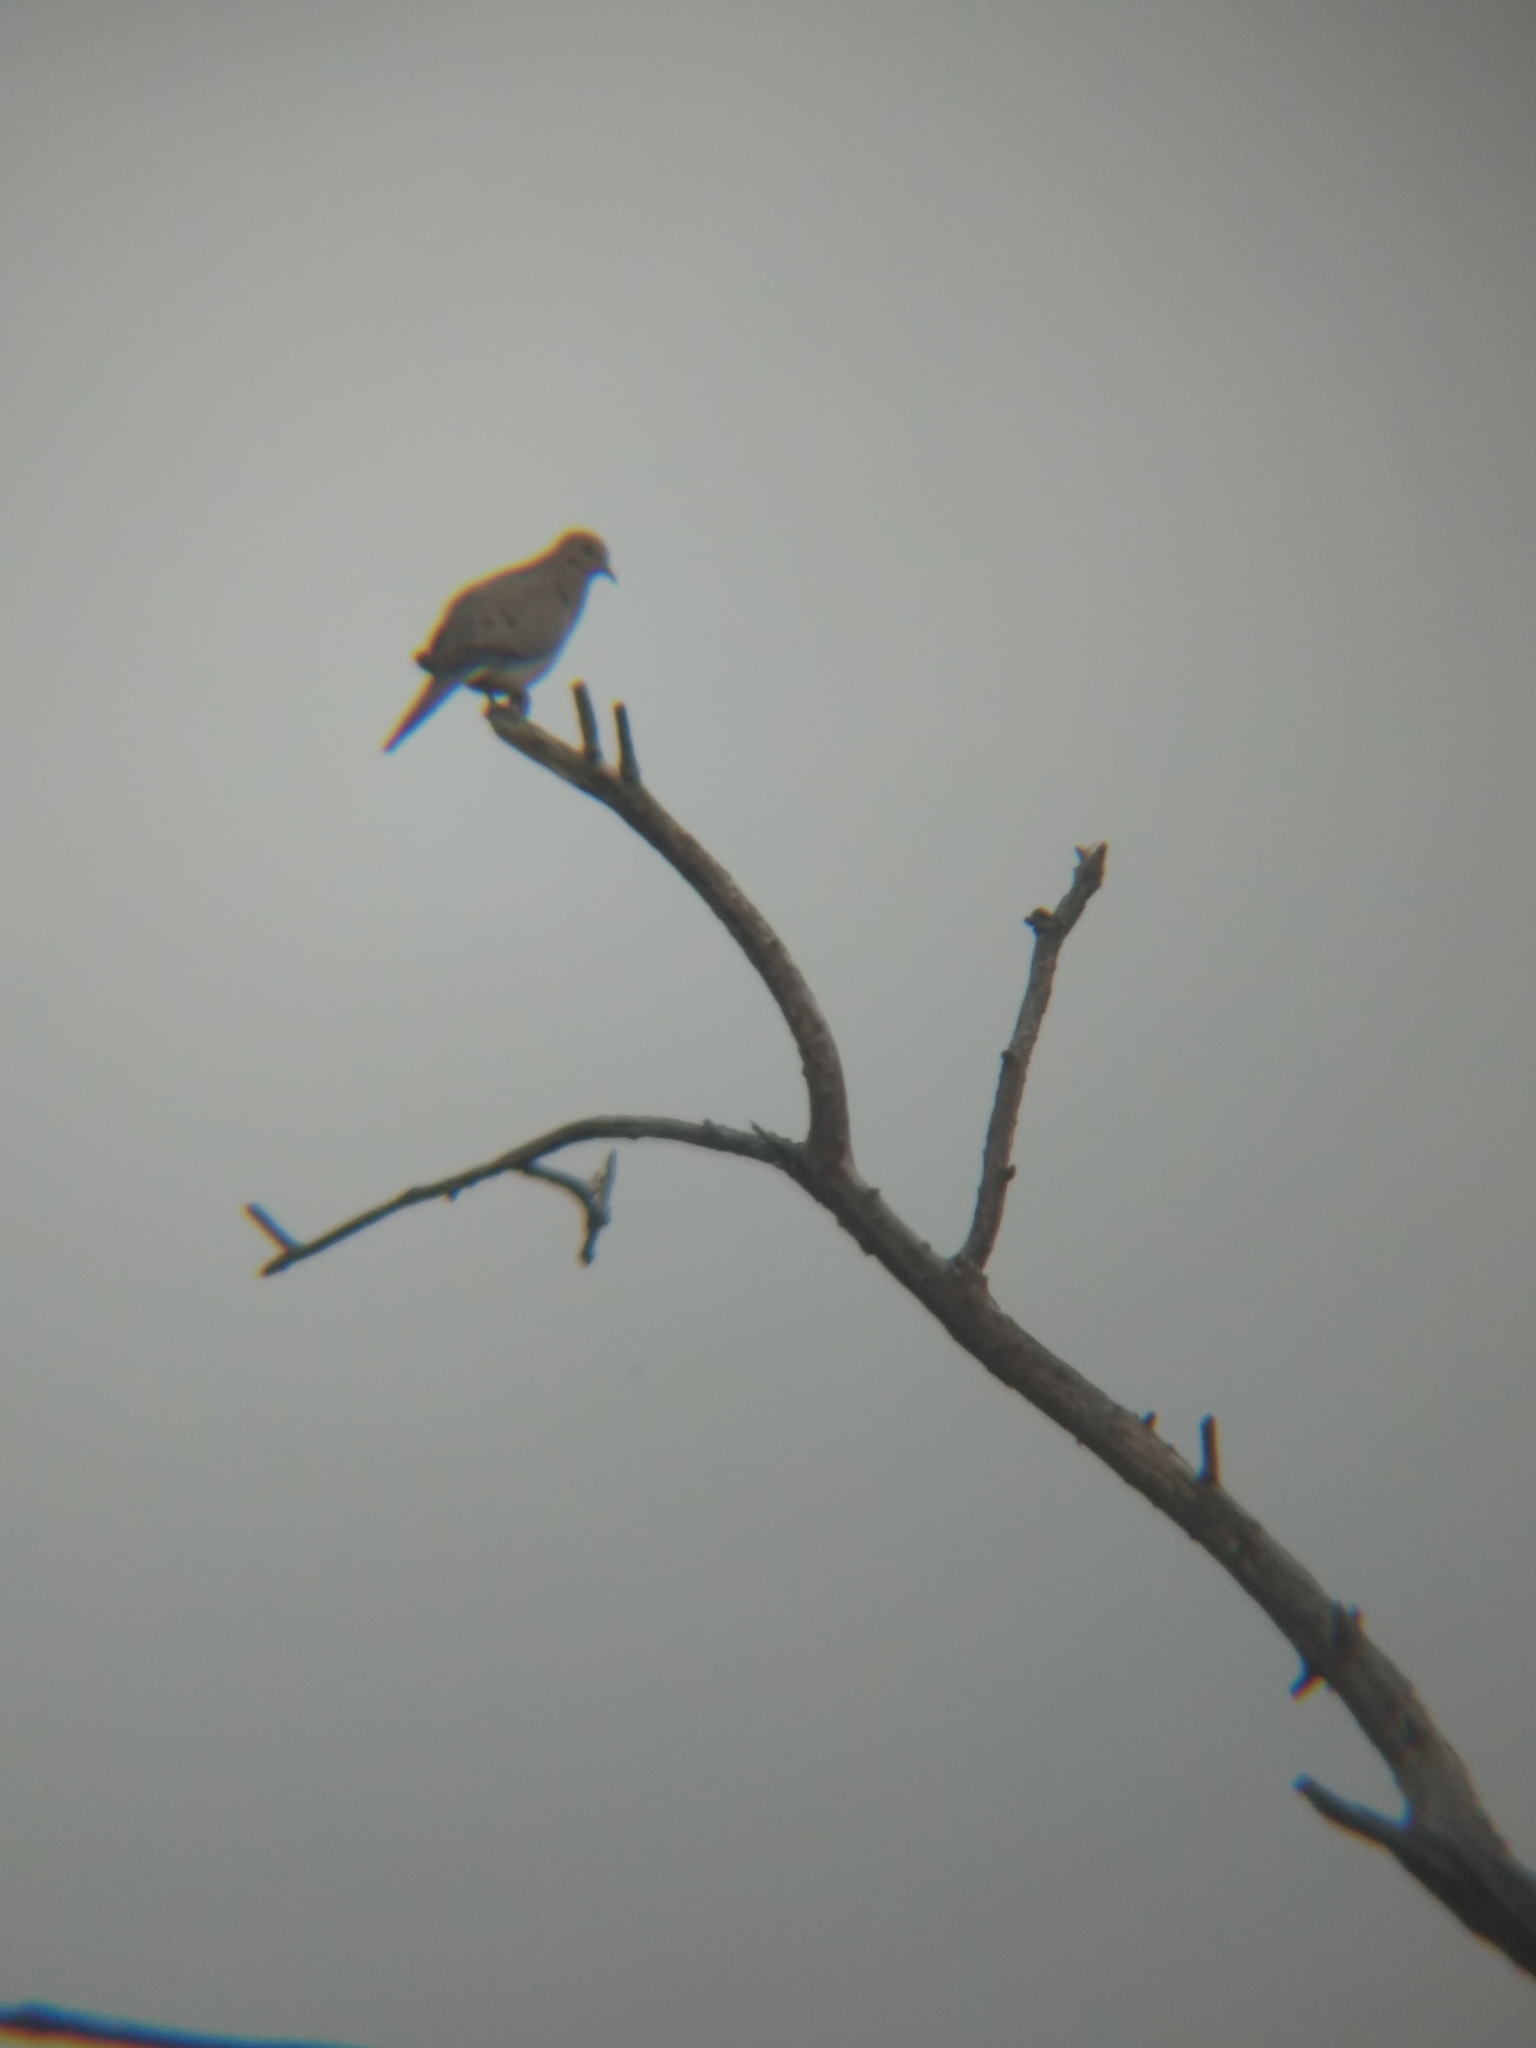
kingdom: Animalia
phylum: Chordata
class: Aves
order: Columbiformes
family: Columbidae
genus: Zenaida
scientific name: Zenaida macroura
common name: Mourning dove
